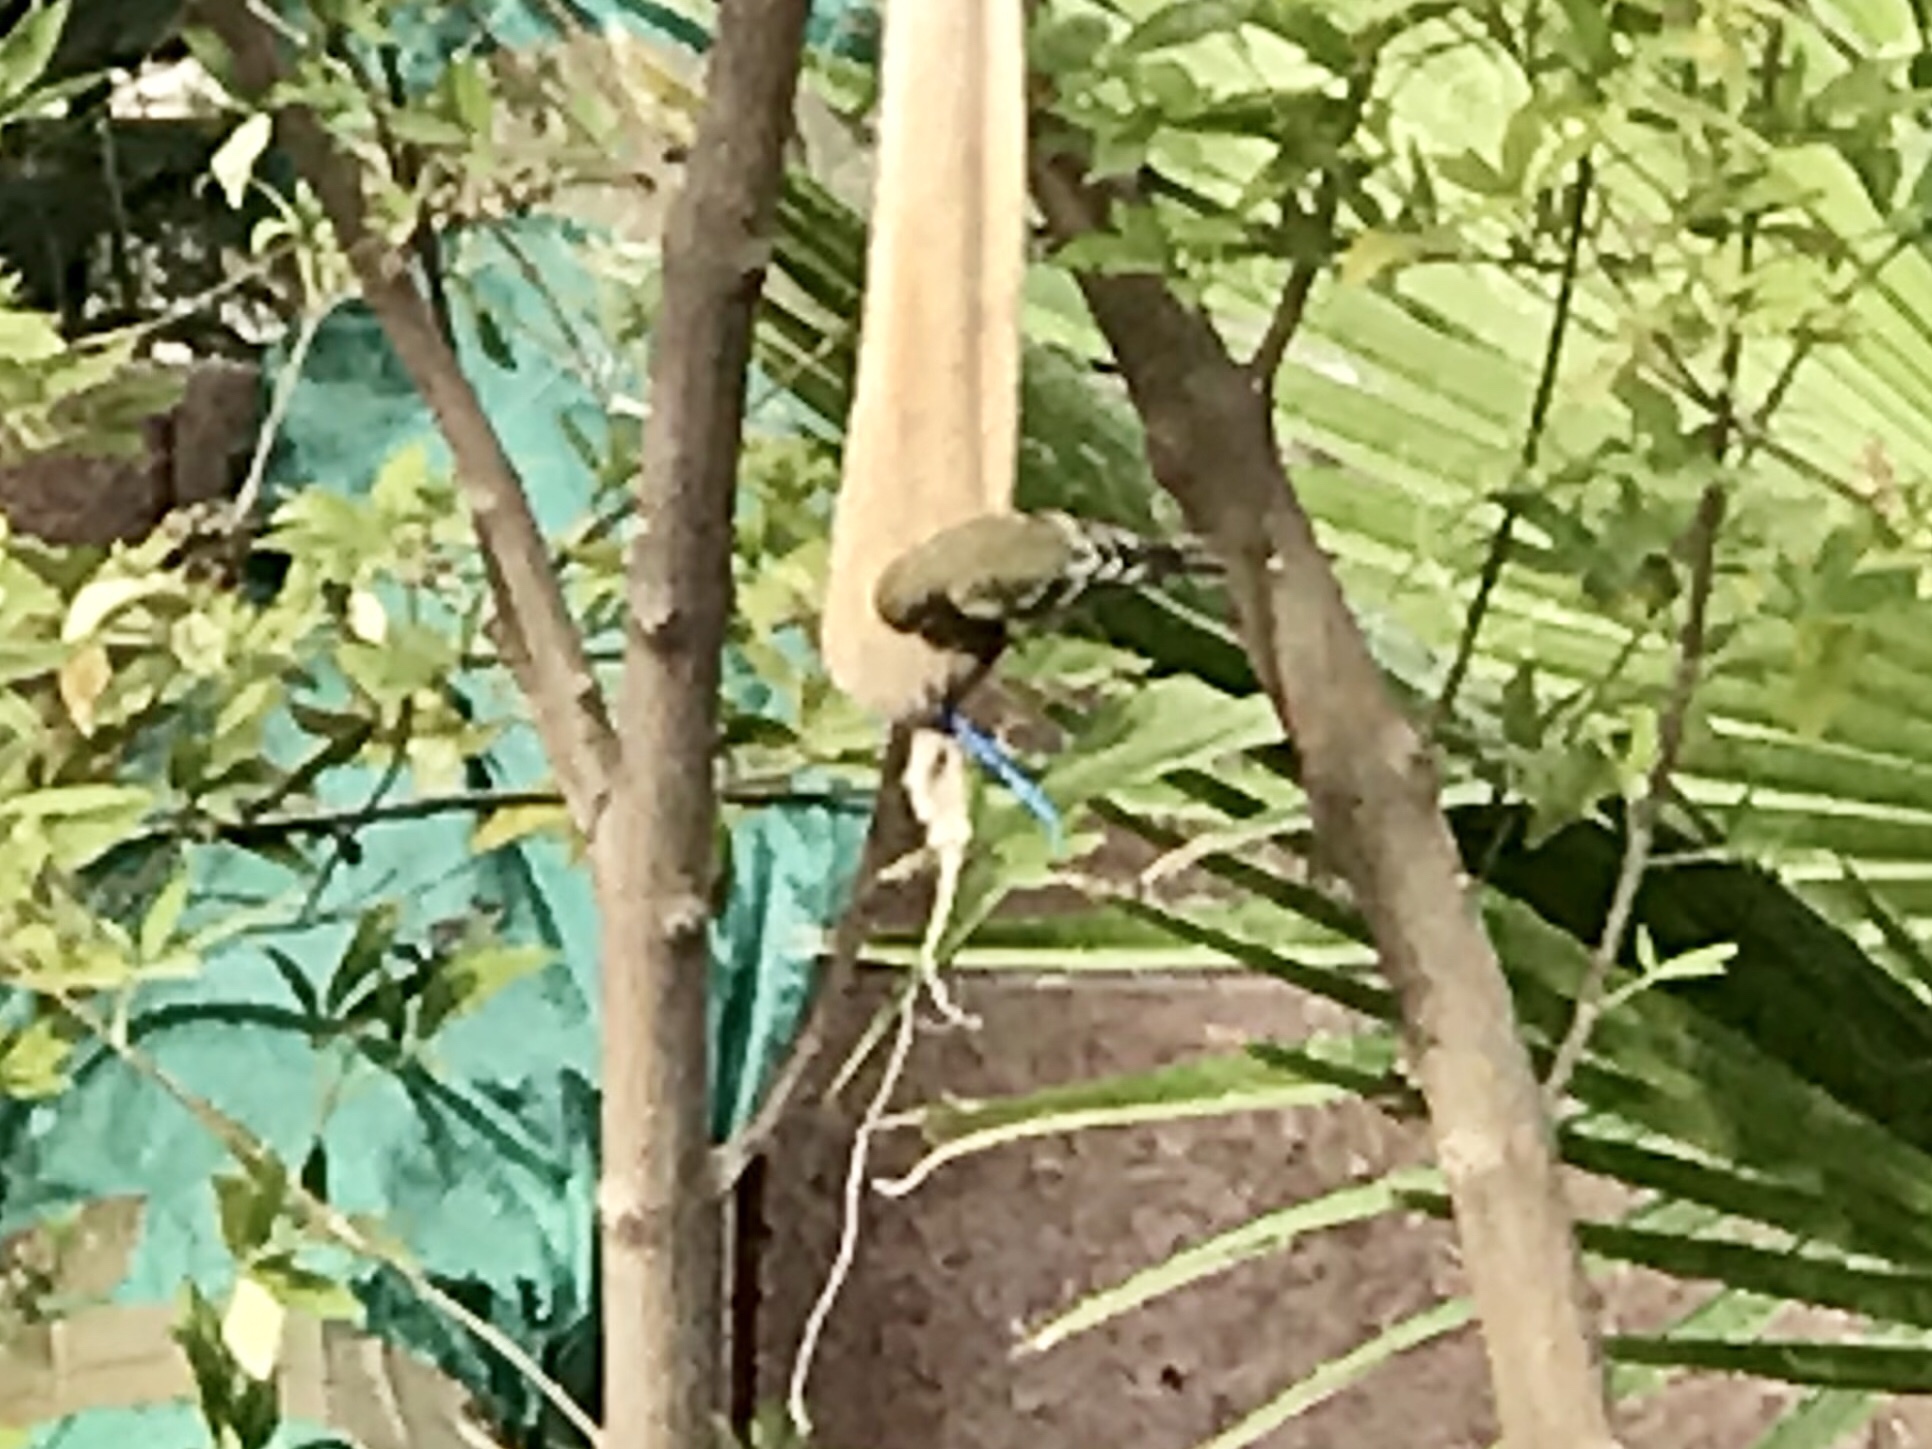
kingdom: Animalia
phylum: Chordata
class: Aves
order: Passeriformes
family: Fringillidae
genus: Spinus
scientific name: Spinus psaltria
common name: Lesser goldfinch
